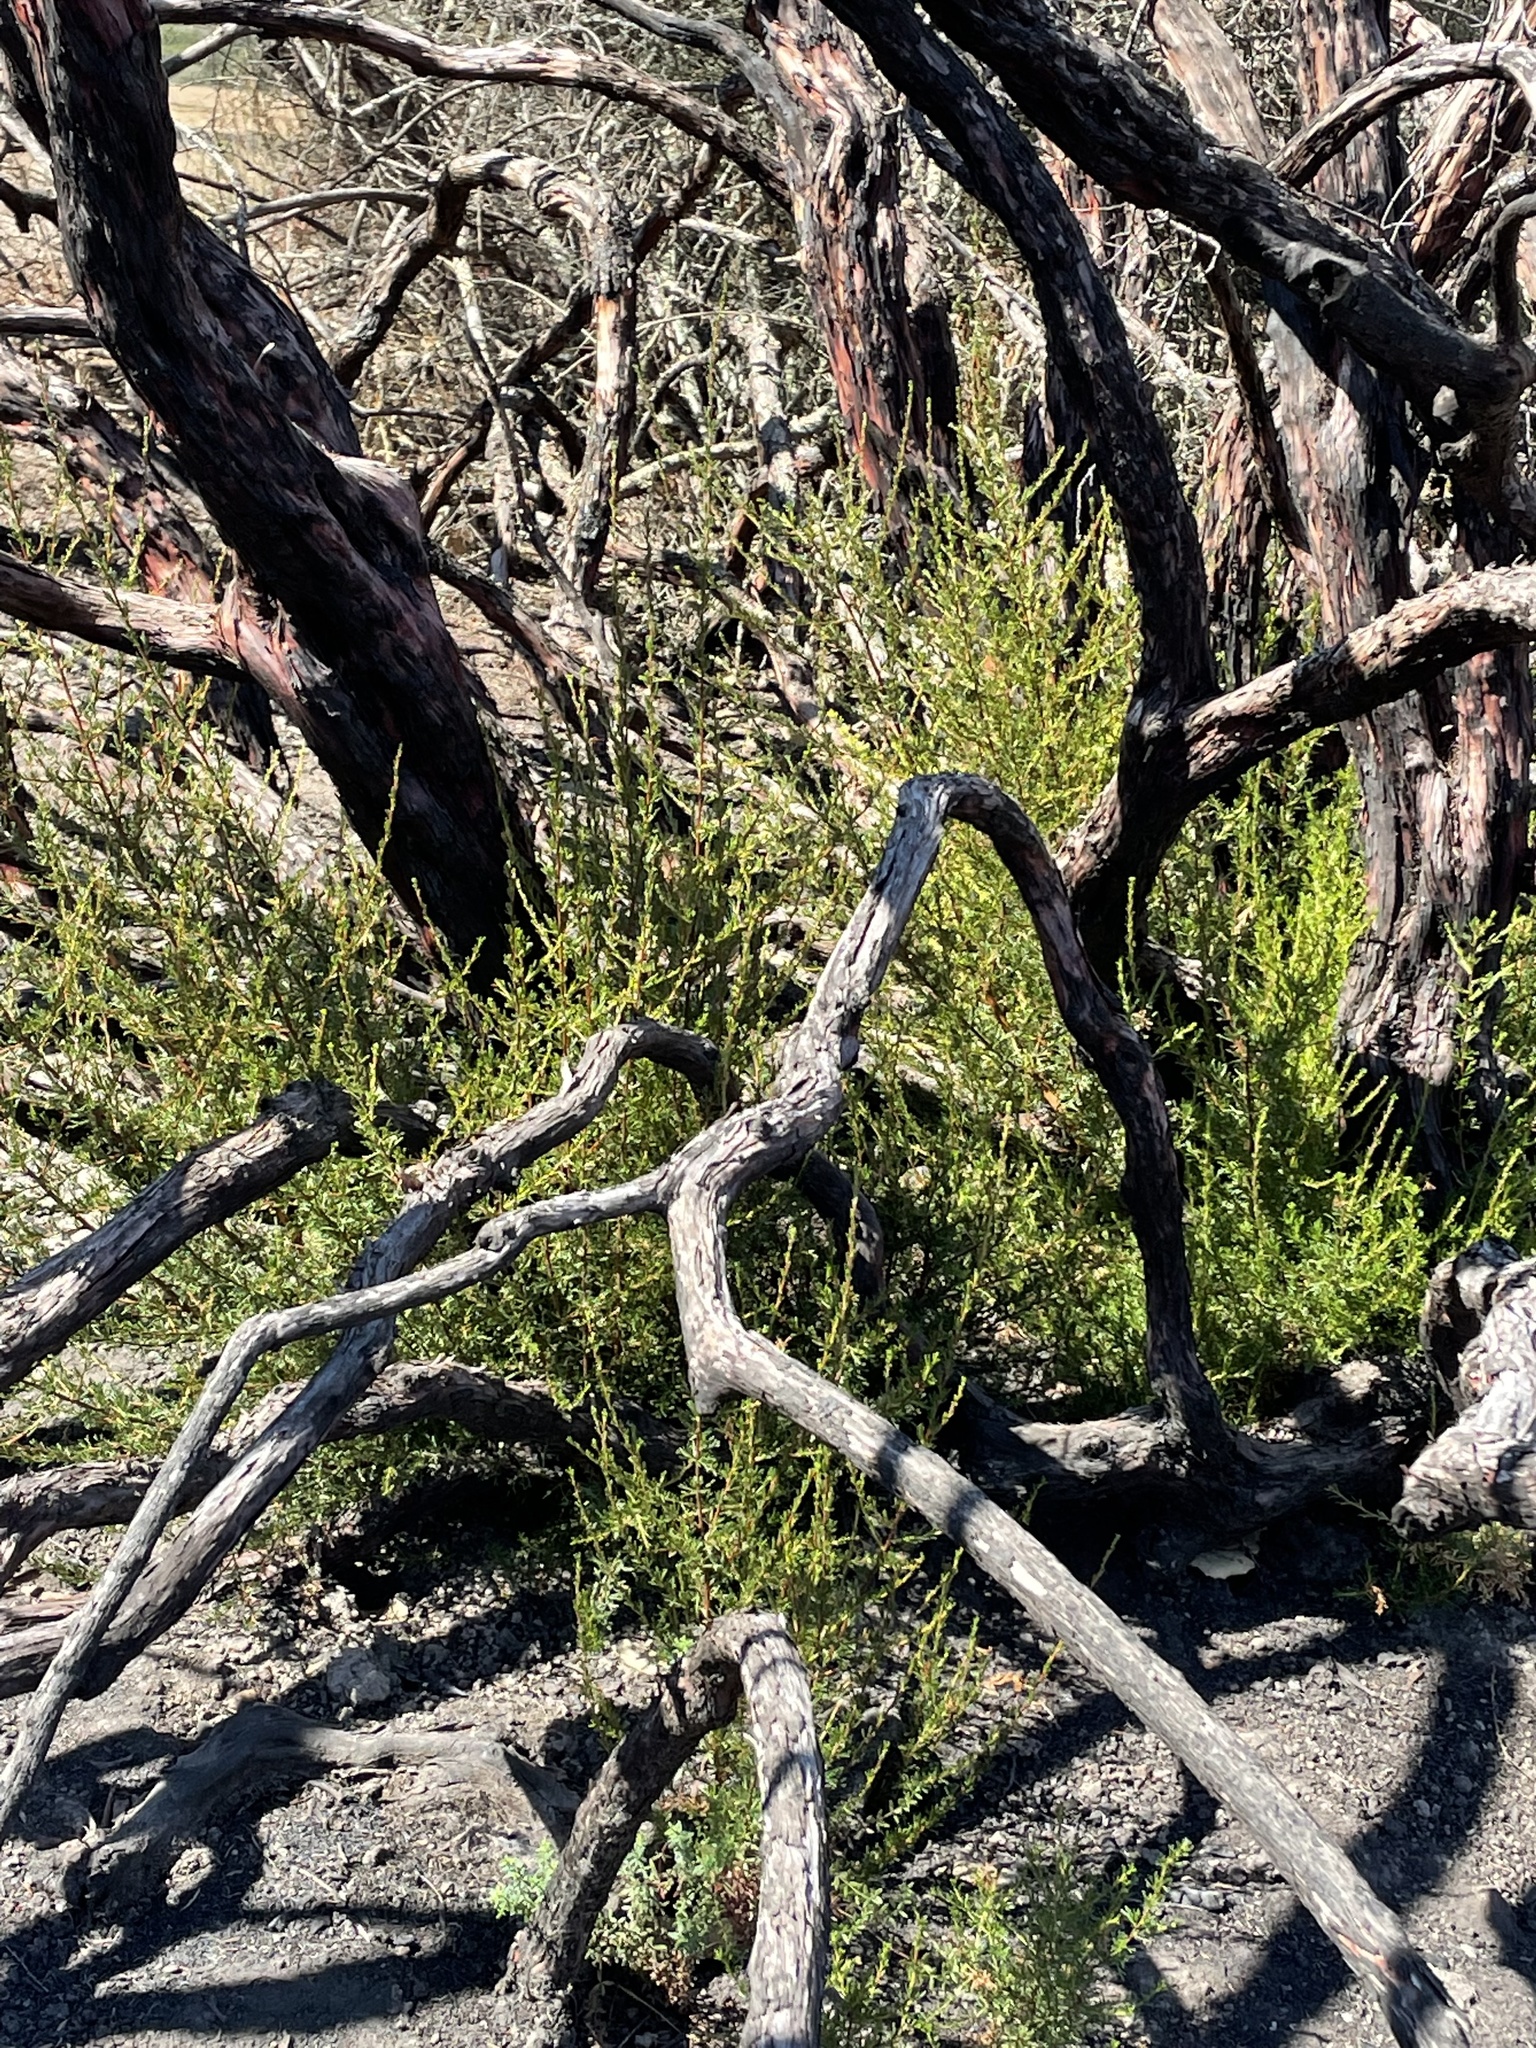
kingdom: Plantae
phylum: Tracheophyta
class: Magnoliopsida
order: Rosales
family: Rosaceae
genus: Adenostoma
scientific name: Adenostoma fasciculatum
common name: Chamise
